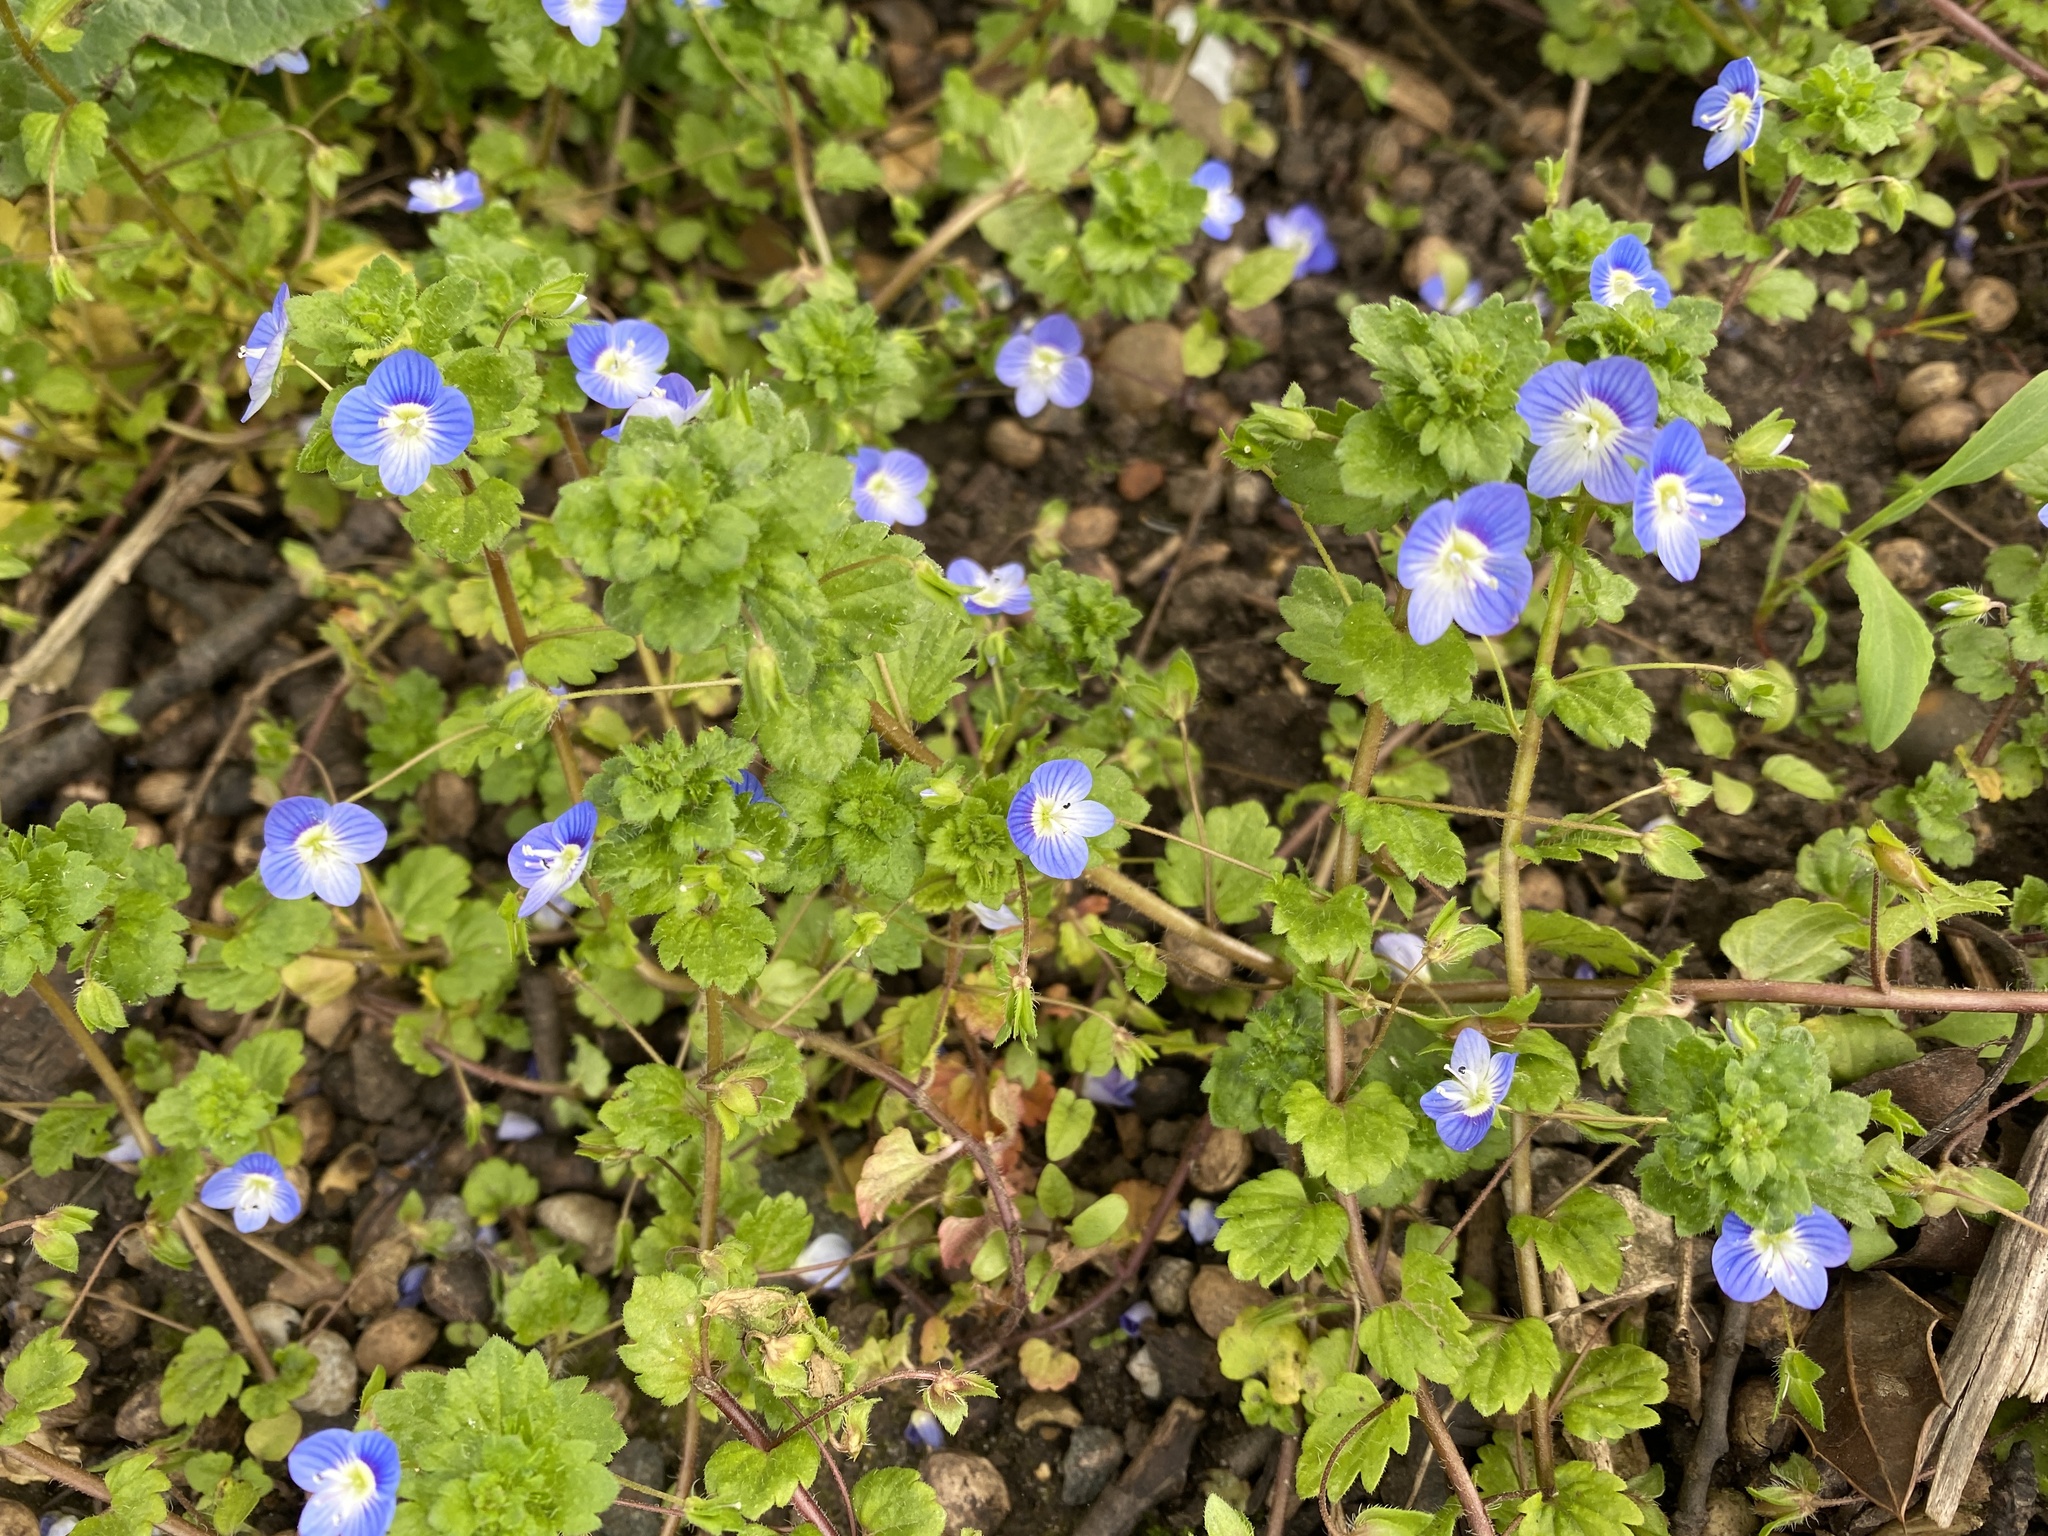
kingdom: Plantae
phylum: Tracheophyta
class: Magnoliopsida
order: Lamiales
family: Plantaginaceae
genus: Veronica
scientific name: Veronica persica
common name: Common field-speedwell
